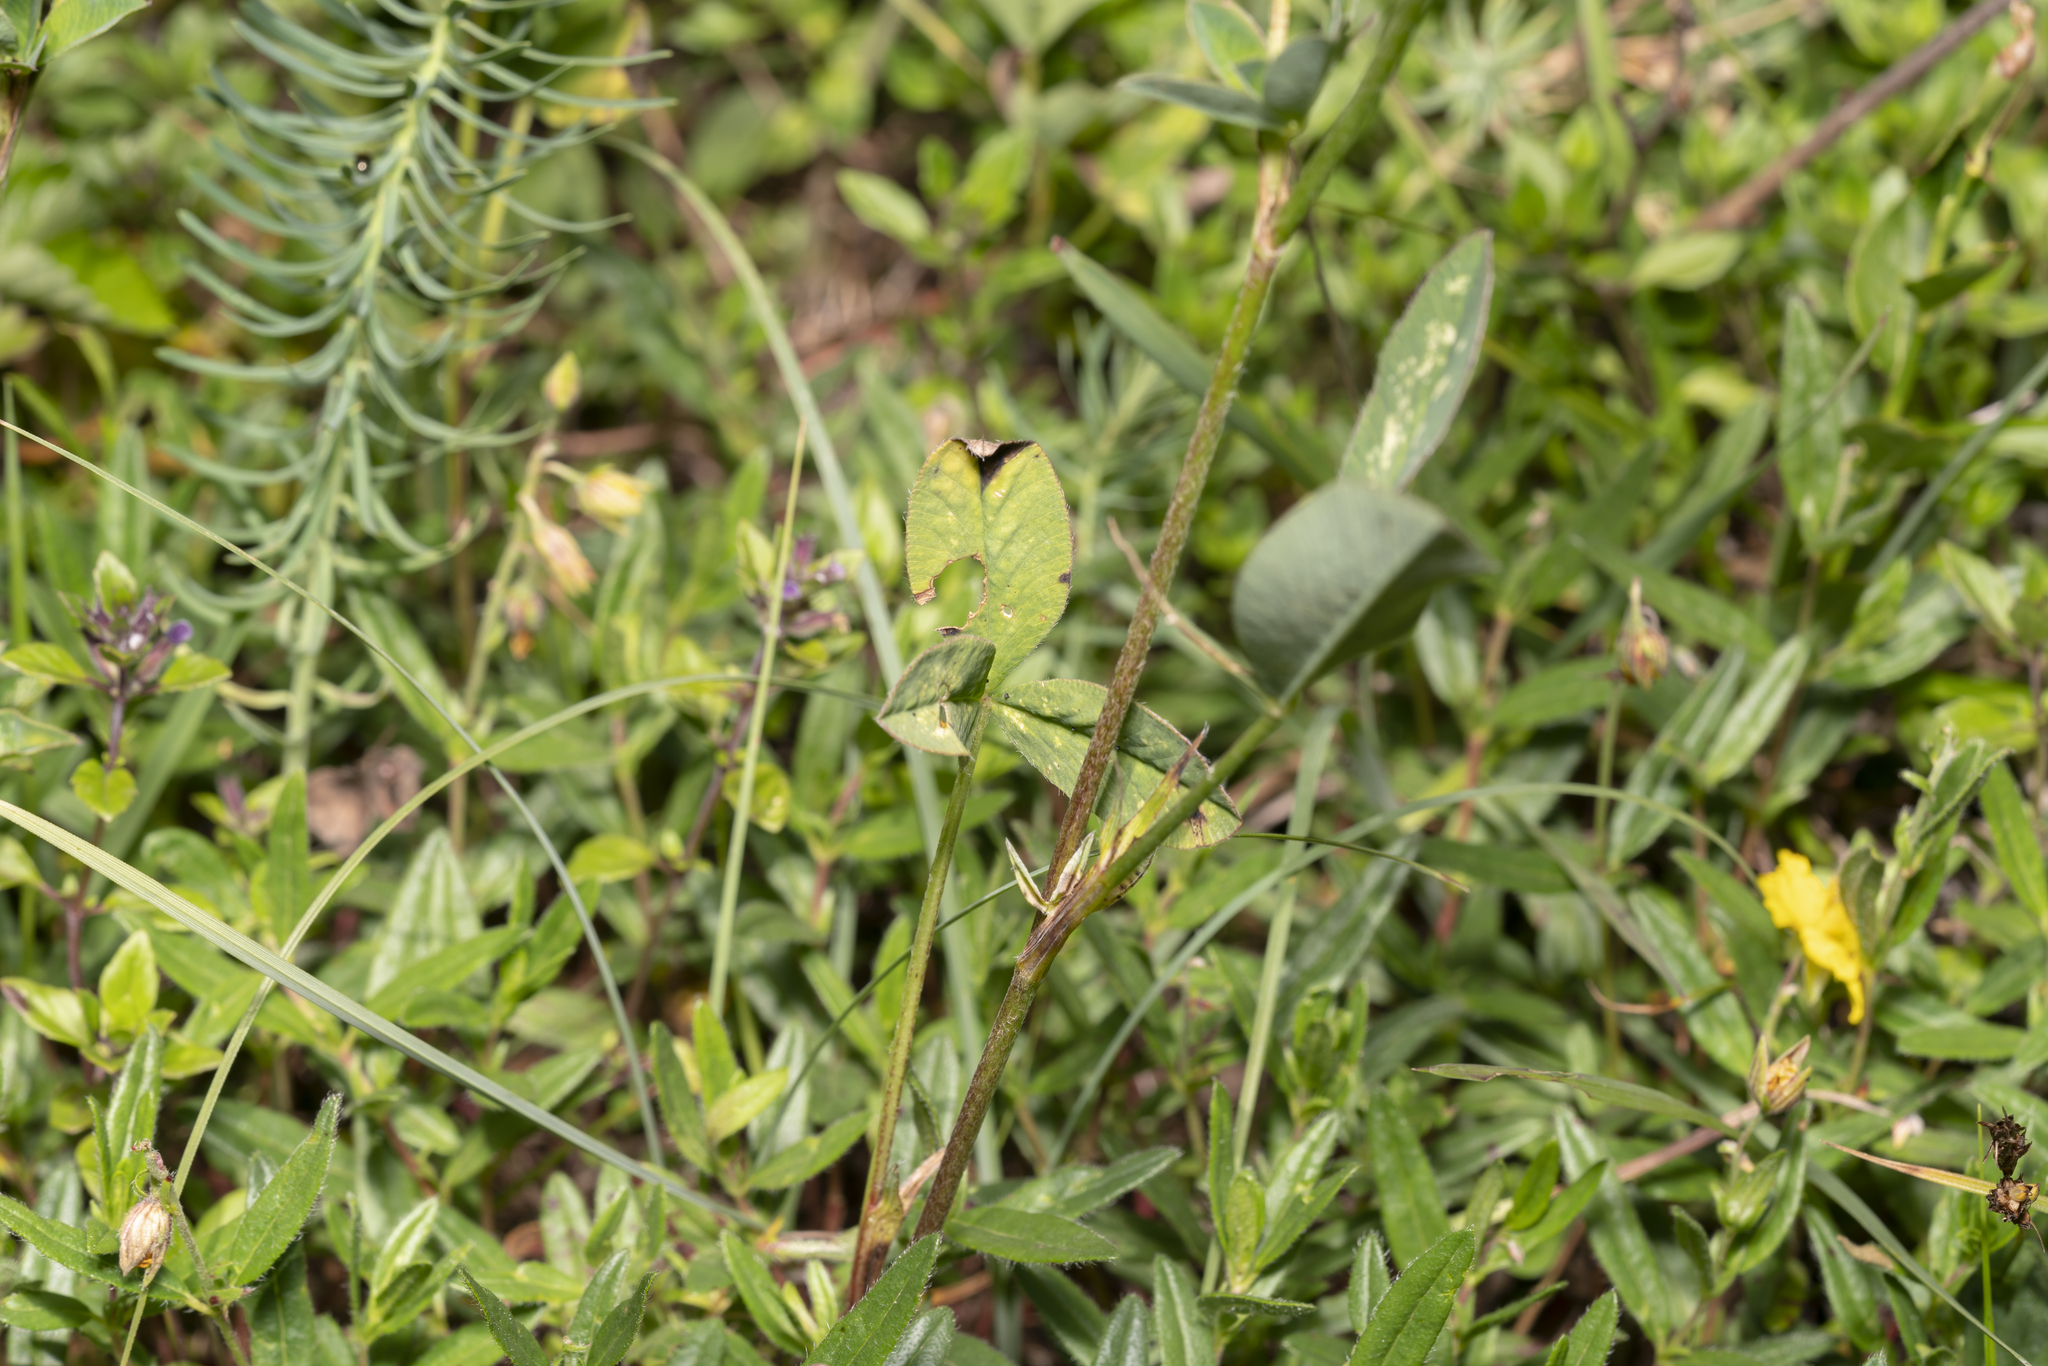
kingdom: Plantae
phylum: Tracheophyta
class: Magnoliopsida
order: Fabales
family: Fabaceae
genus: Trifolium
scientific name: Trifolium medium
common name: Zigzag clover
